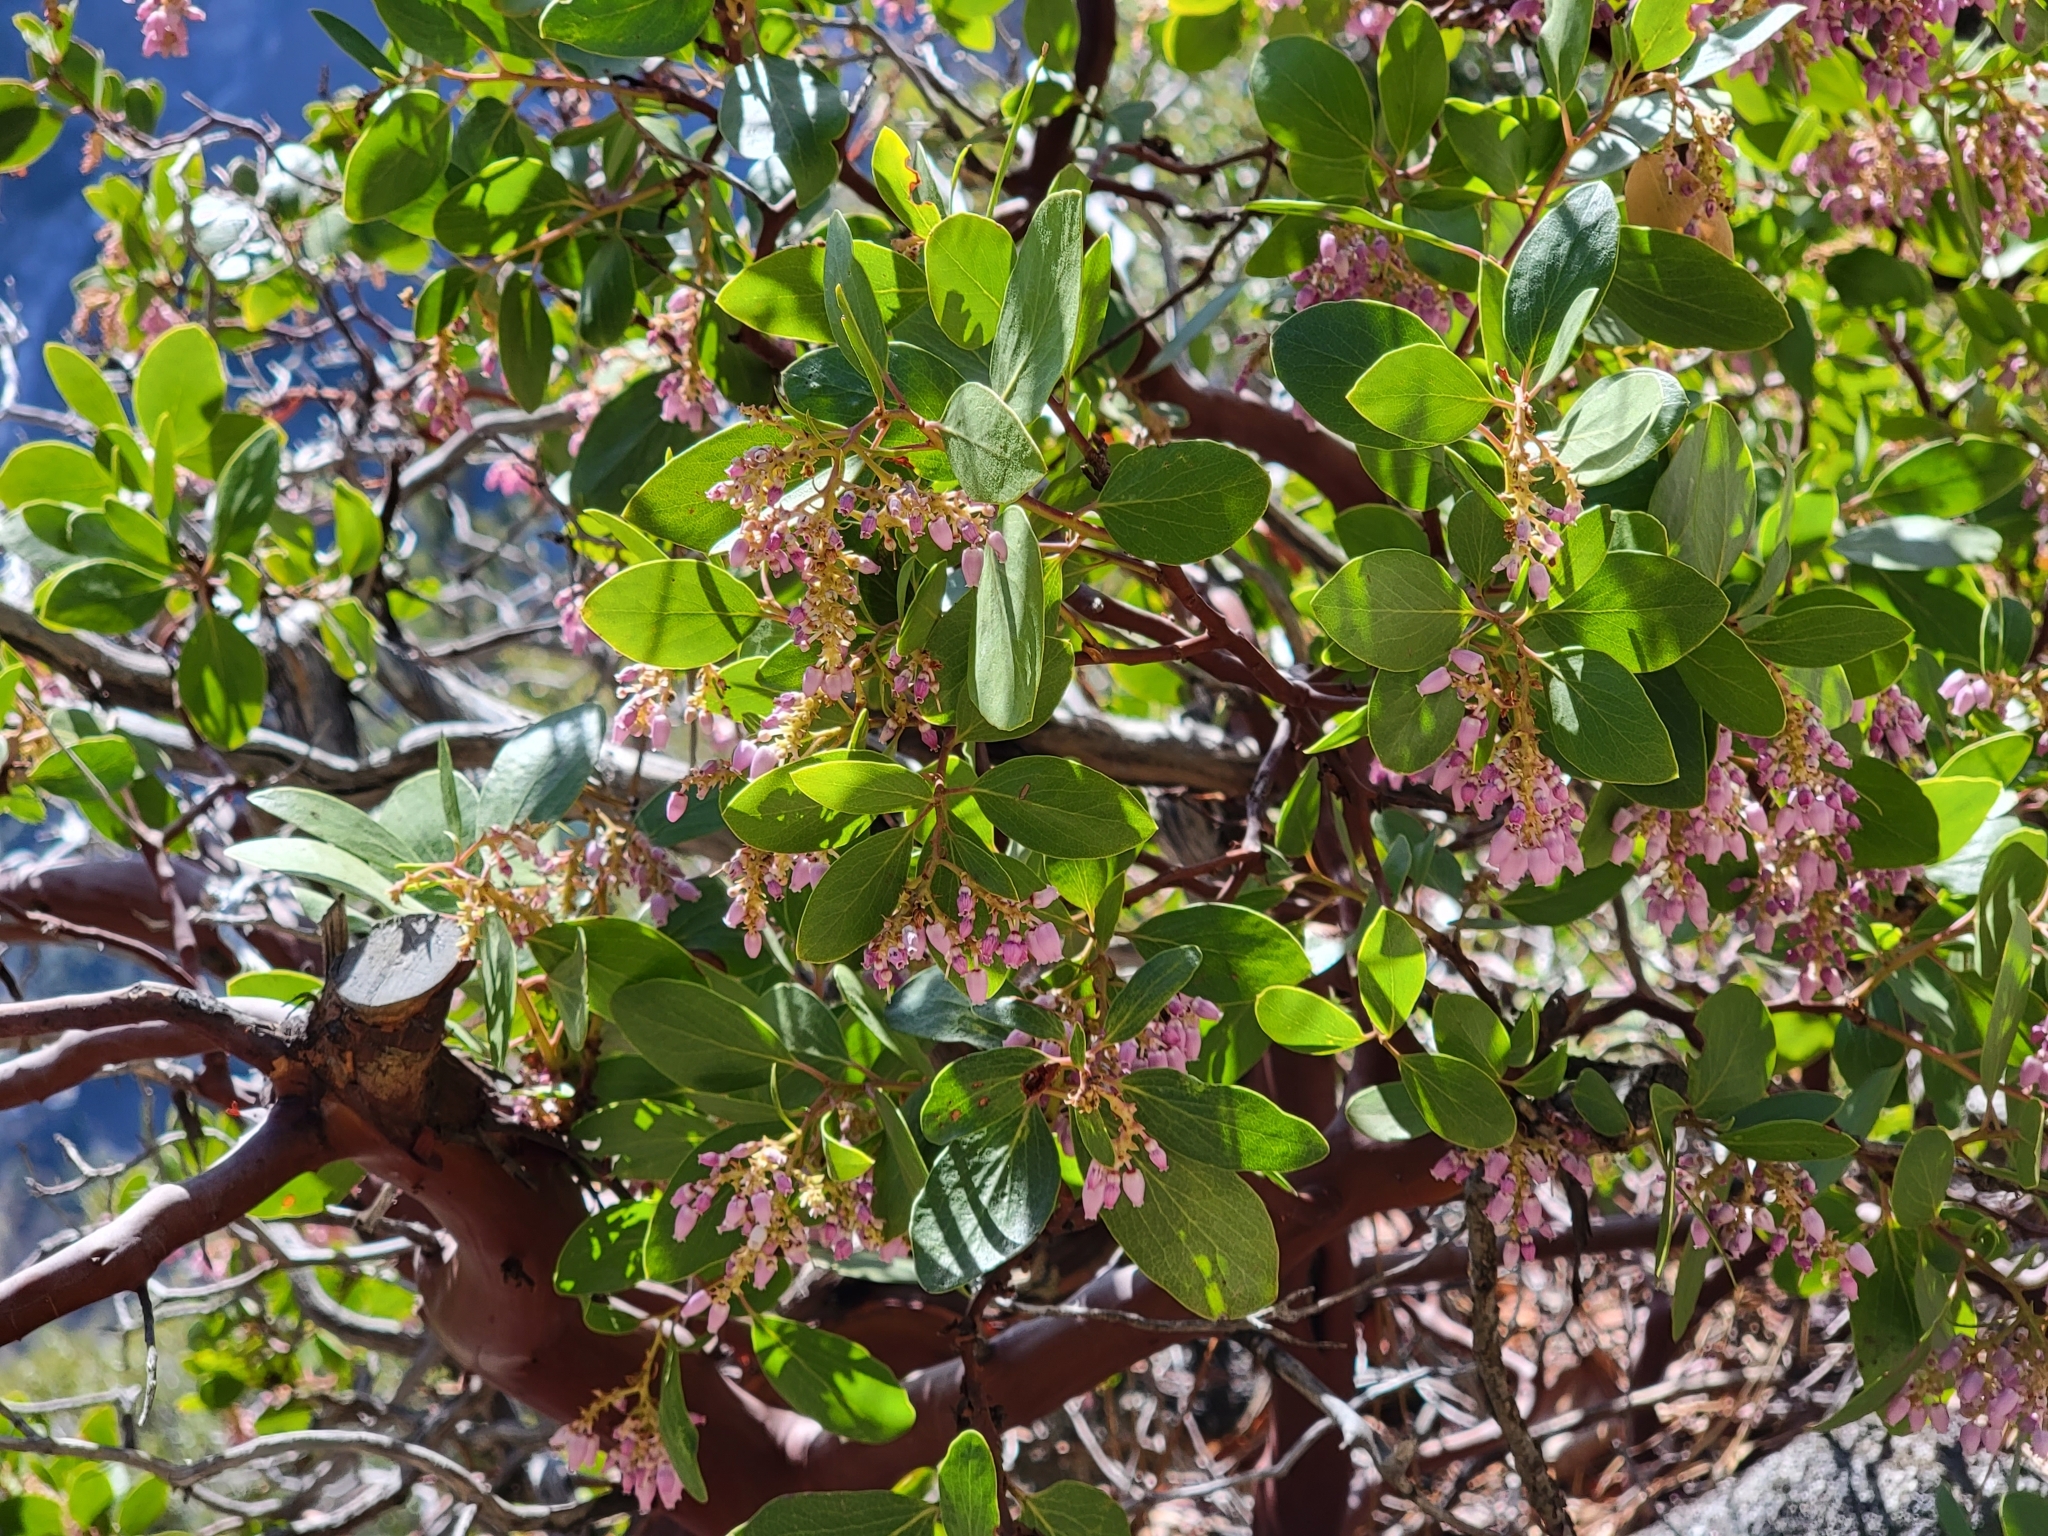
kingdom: Plantae
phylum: Tracheophyta
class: Magnoliopsida
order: Ericales
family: Ericaceae
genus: Arctostaphylos
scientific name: Arctostaphylos patula
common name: Green-leaf manzanita
